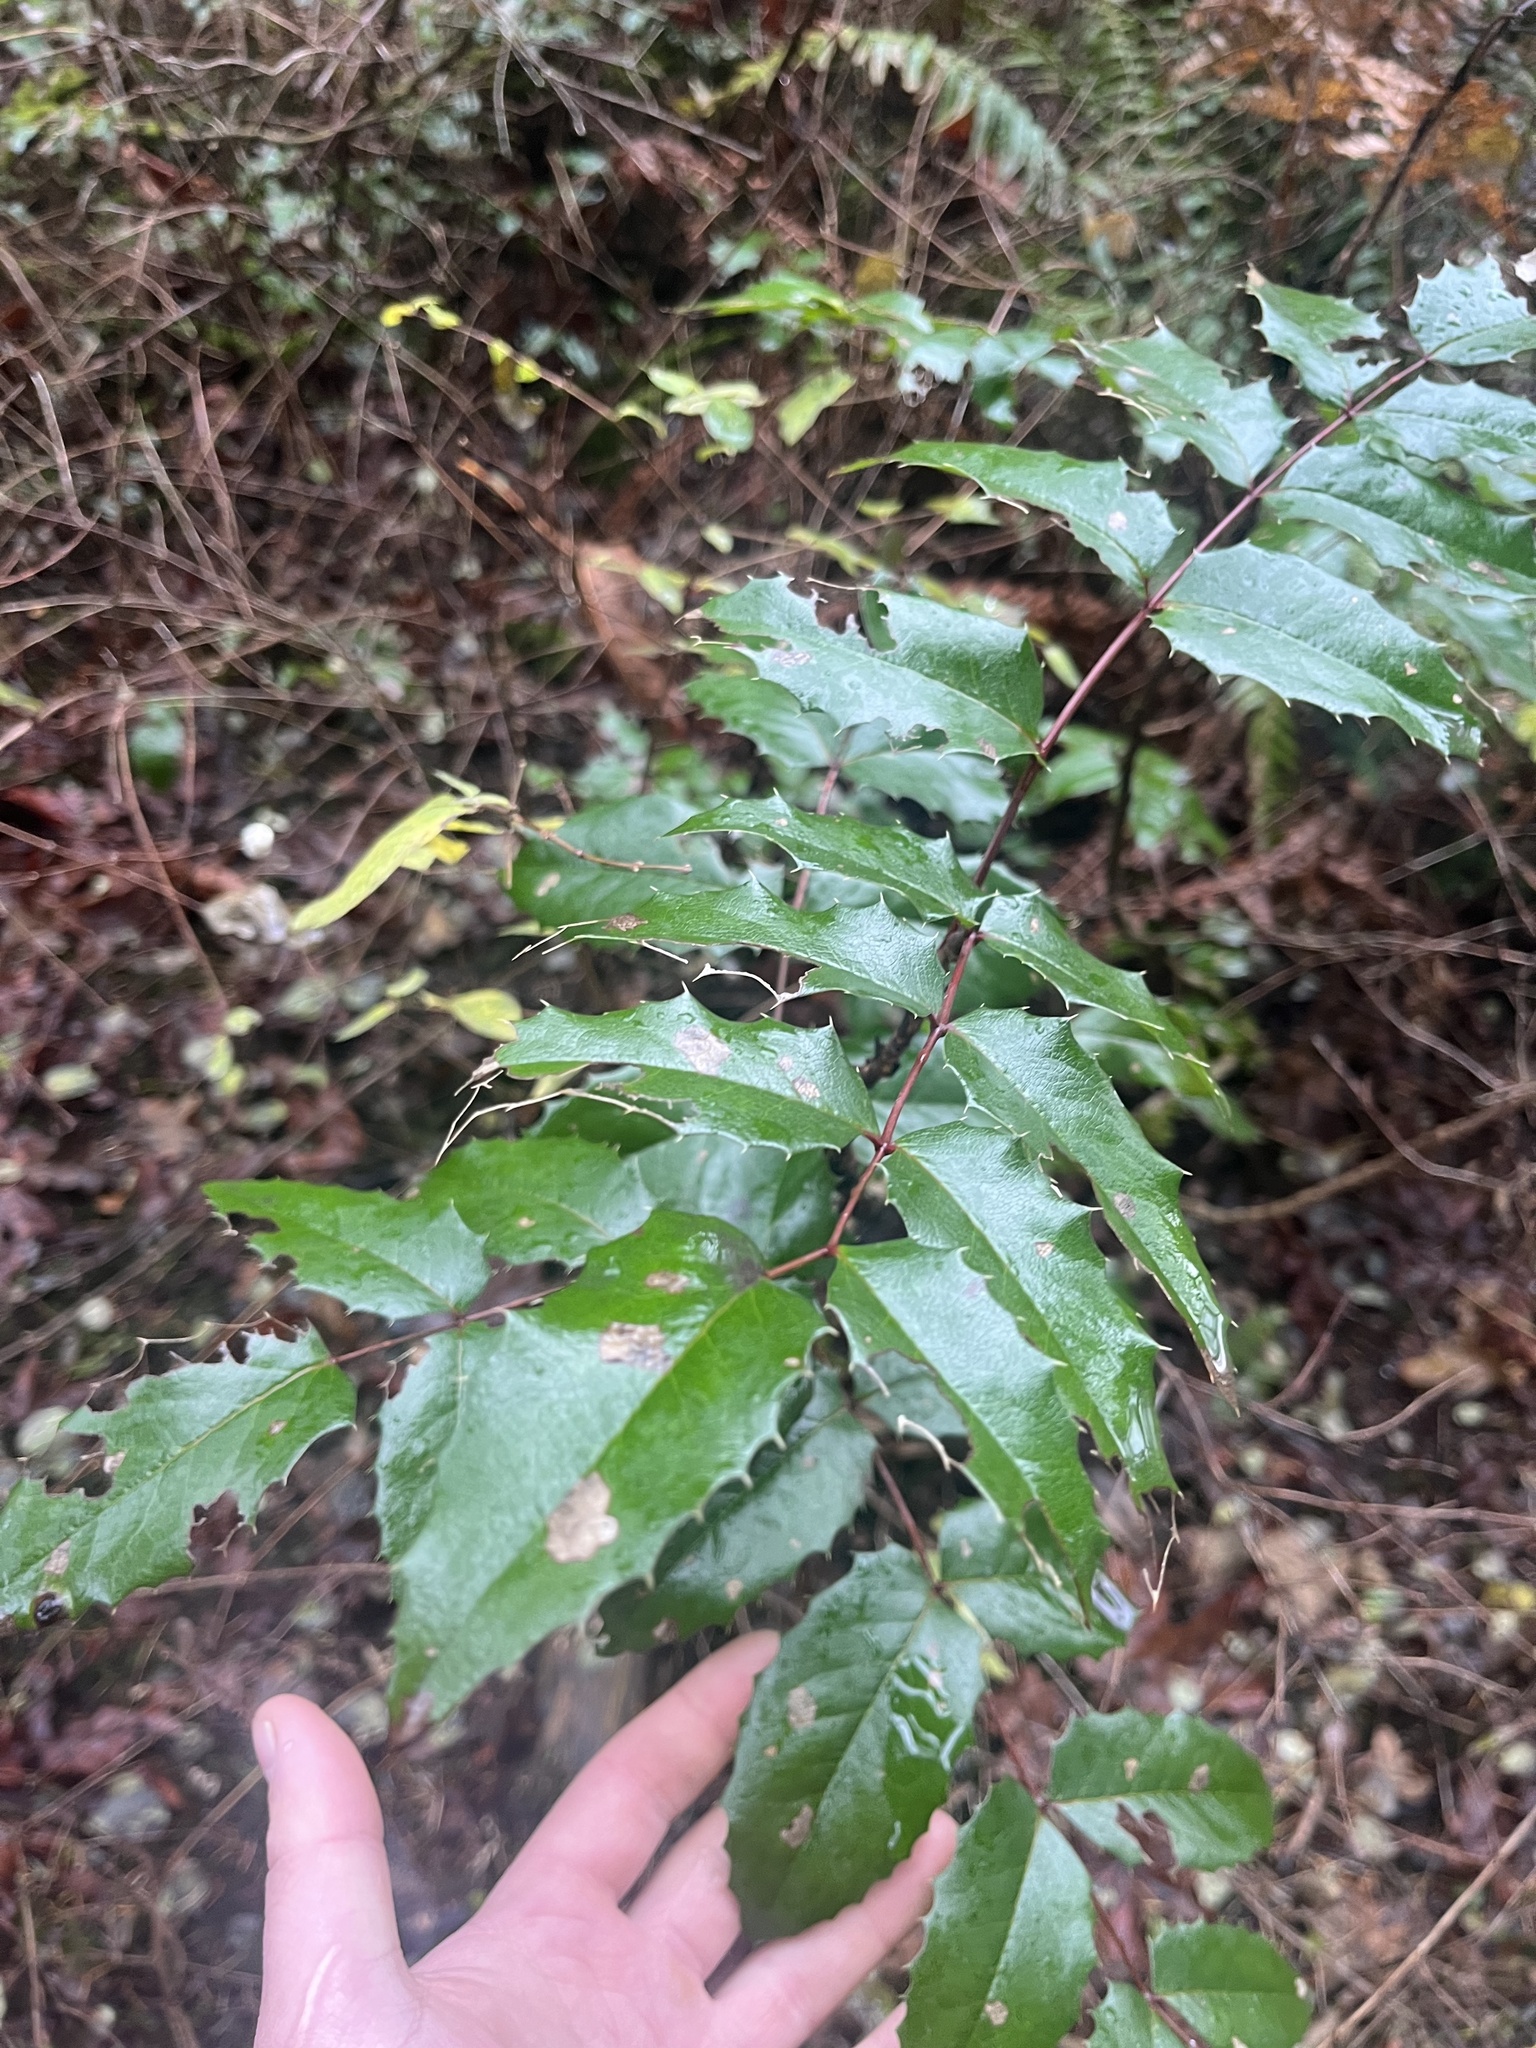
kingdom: Plantae
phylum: Tracheophyta
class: Magnoliopsida
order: Ranunculales
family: Berberidaceae
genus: Mahonia
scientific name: Mahonia aquifolium
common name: Oregon-grape
